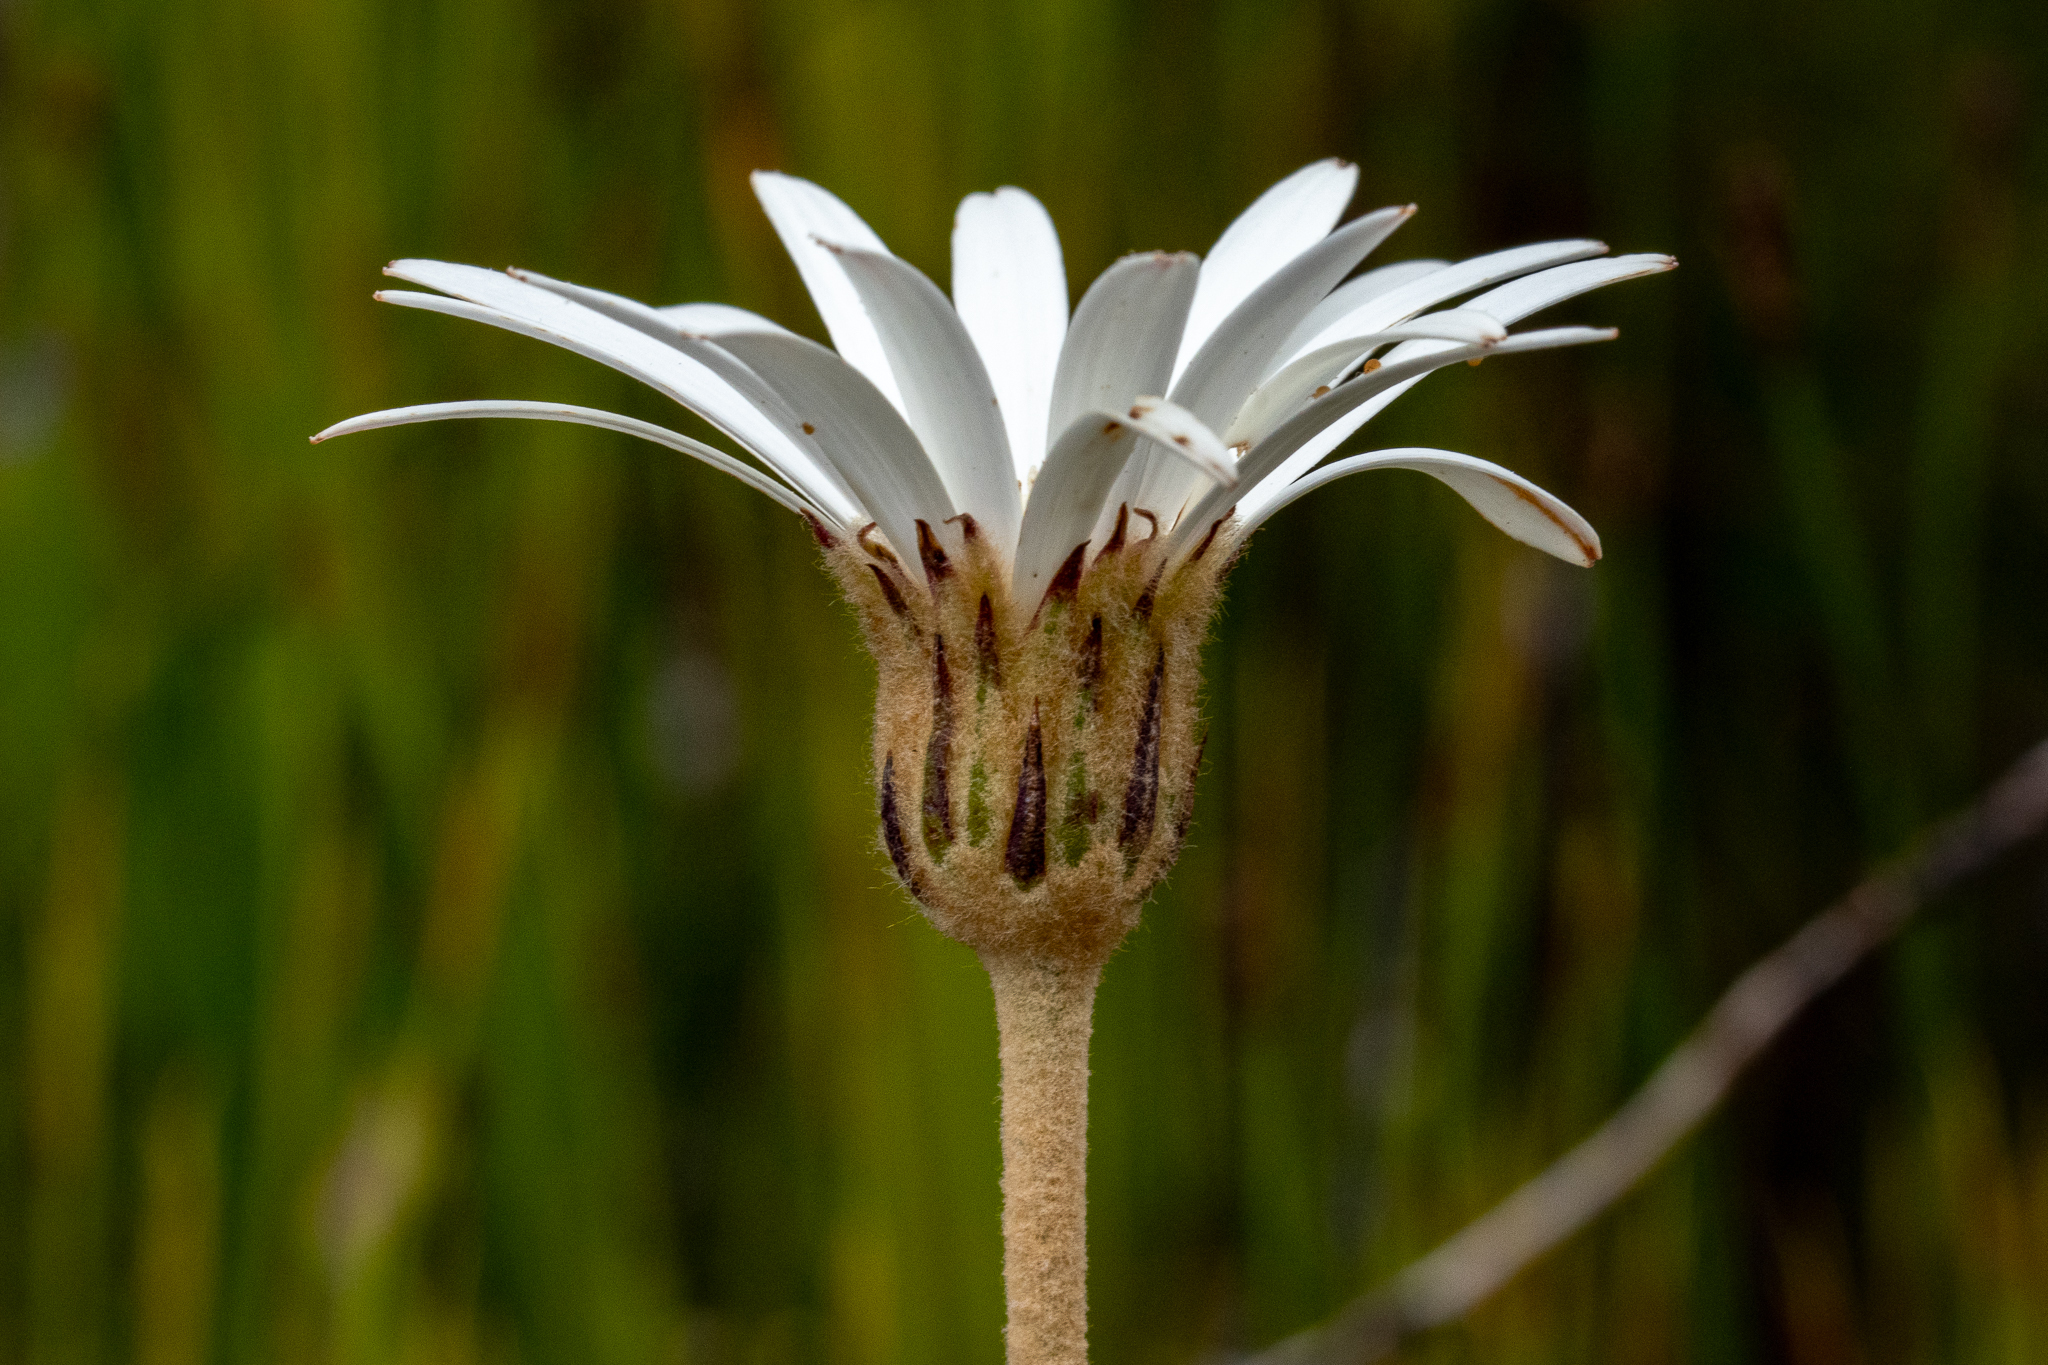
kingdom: Plantae
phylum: Tracheophyta
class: Magnoliopsida
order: Asterales
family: Asteraceae
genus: Gerbera
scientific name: Gerbera crocea
